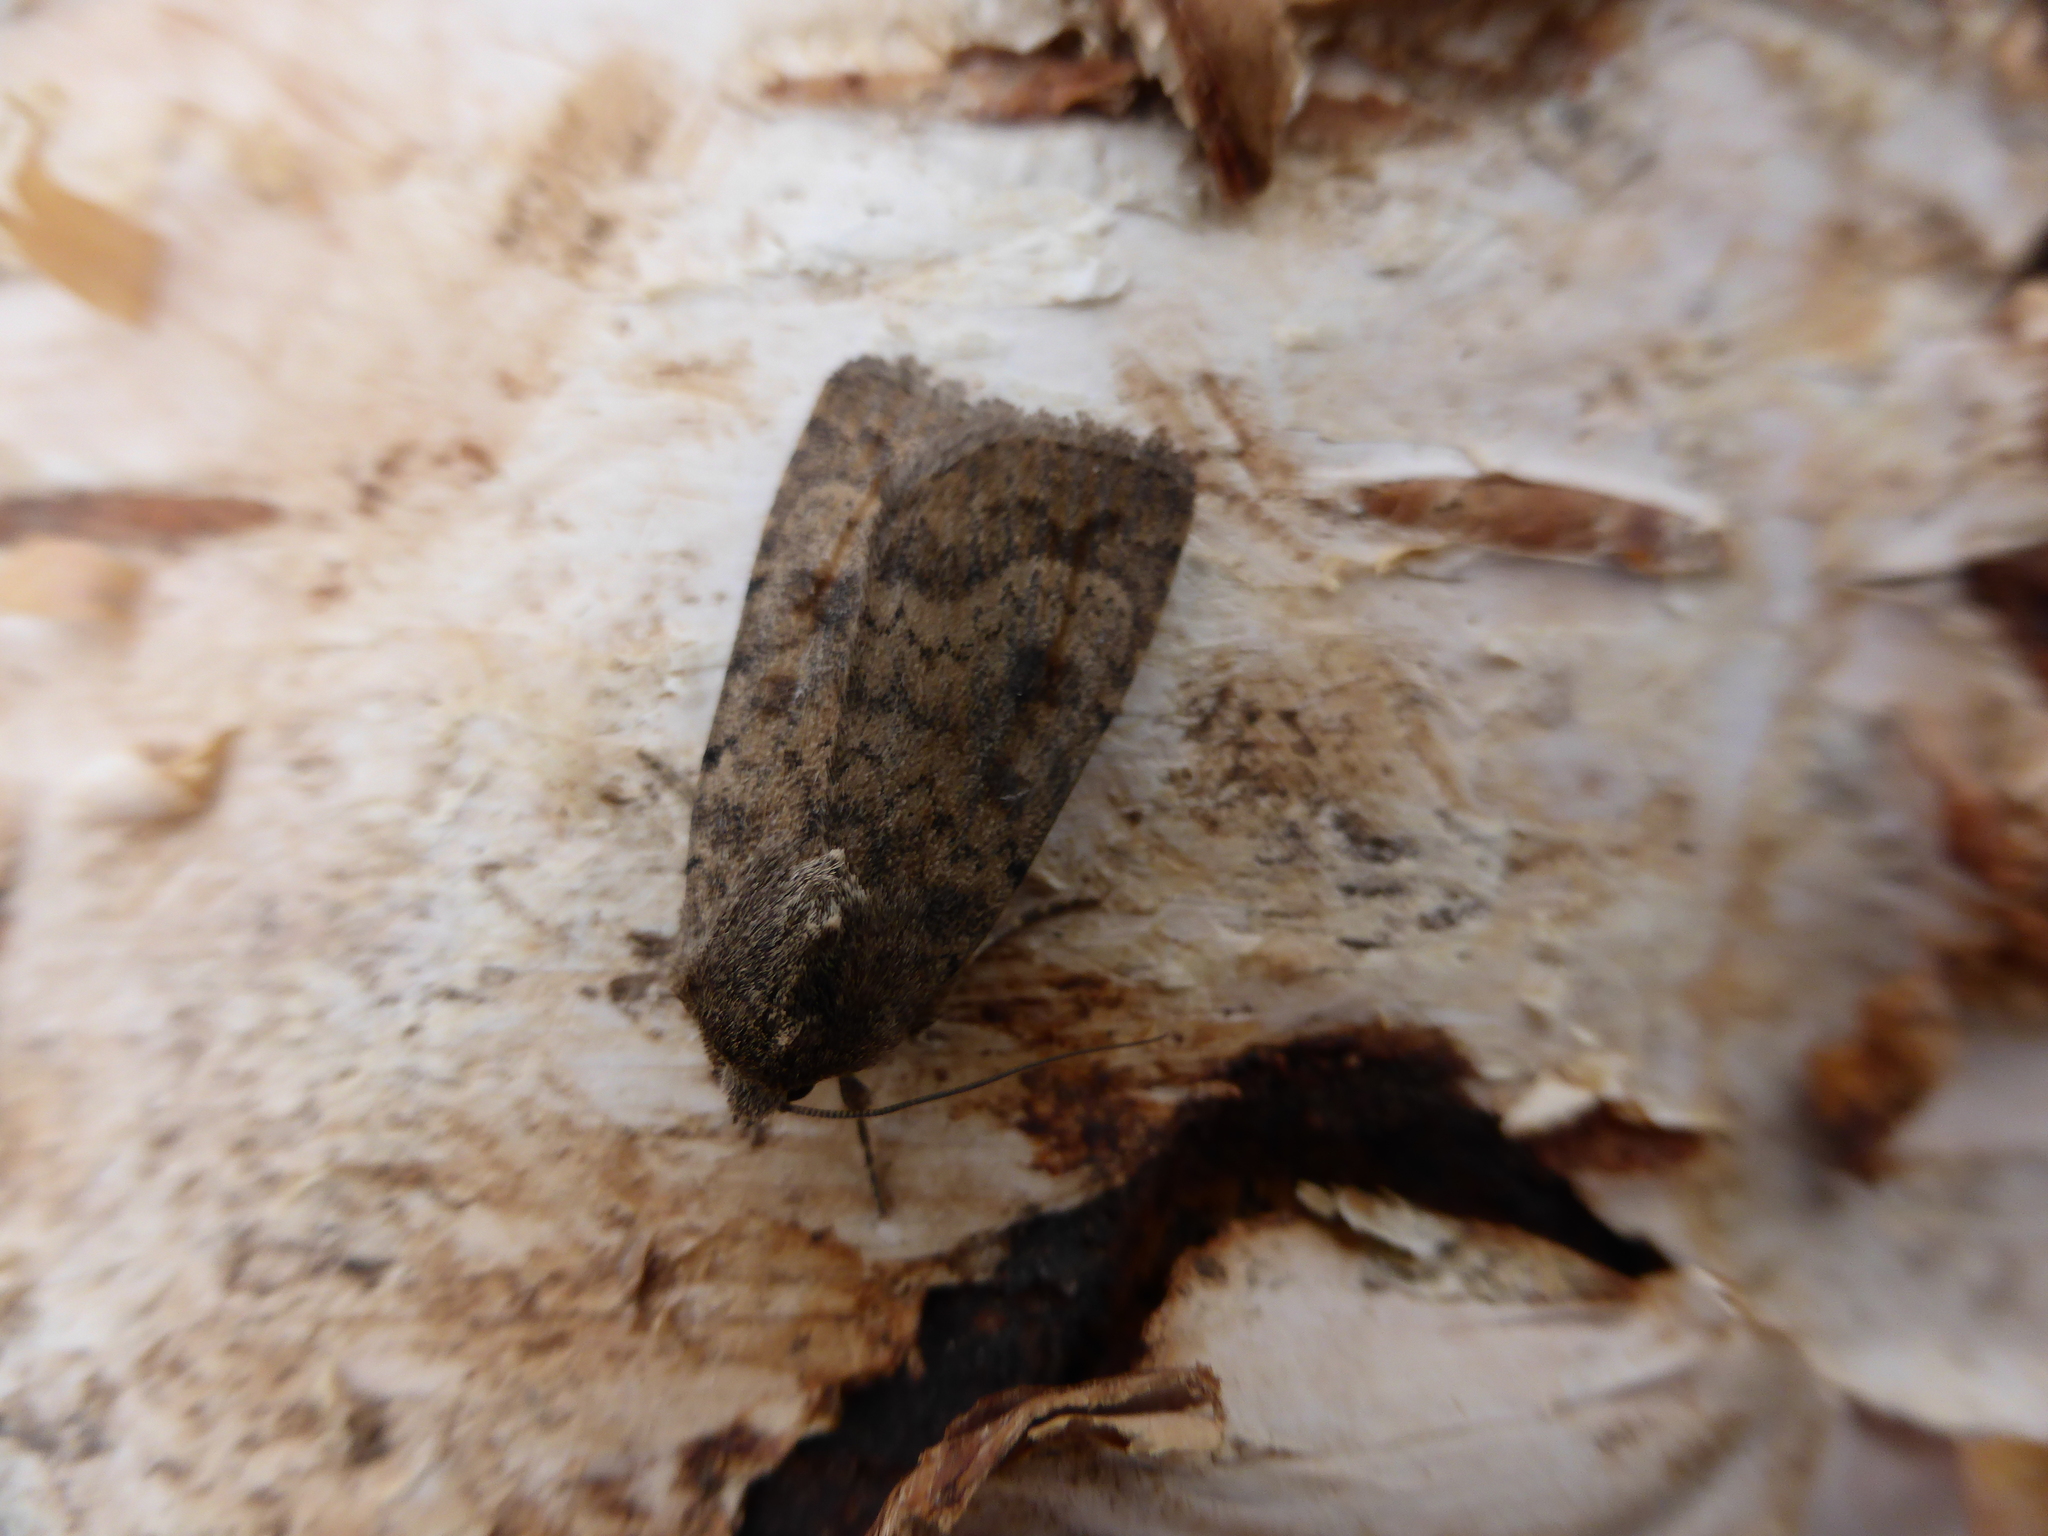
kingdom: Animalia
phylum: Arthropoda
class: Insecta
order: Lepidoptera
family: Noctuidae
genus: Caradrina
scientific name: Caradrina morpheus
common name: Mottled rustic
